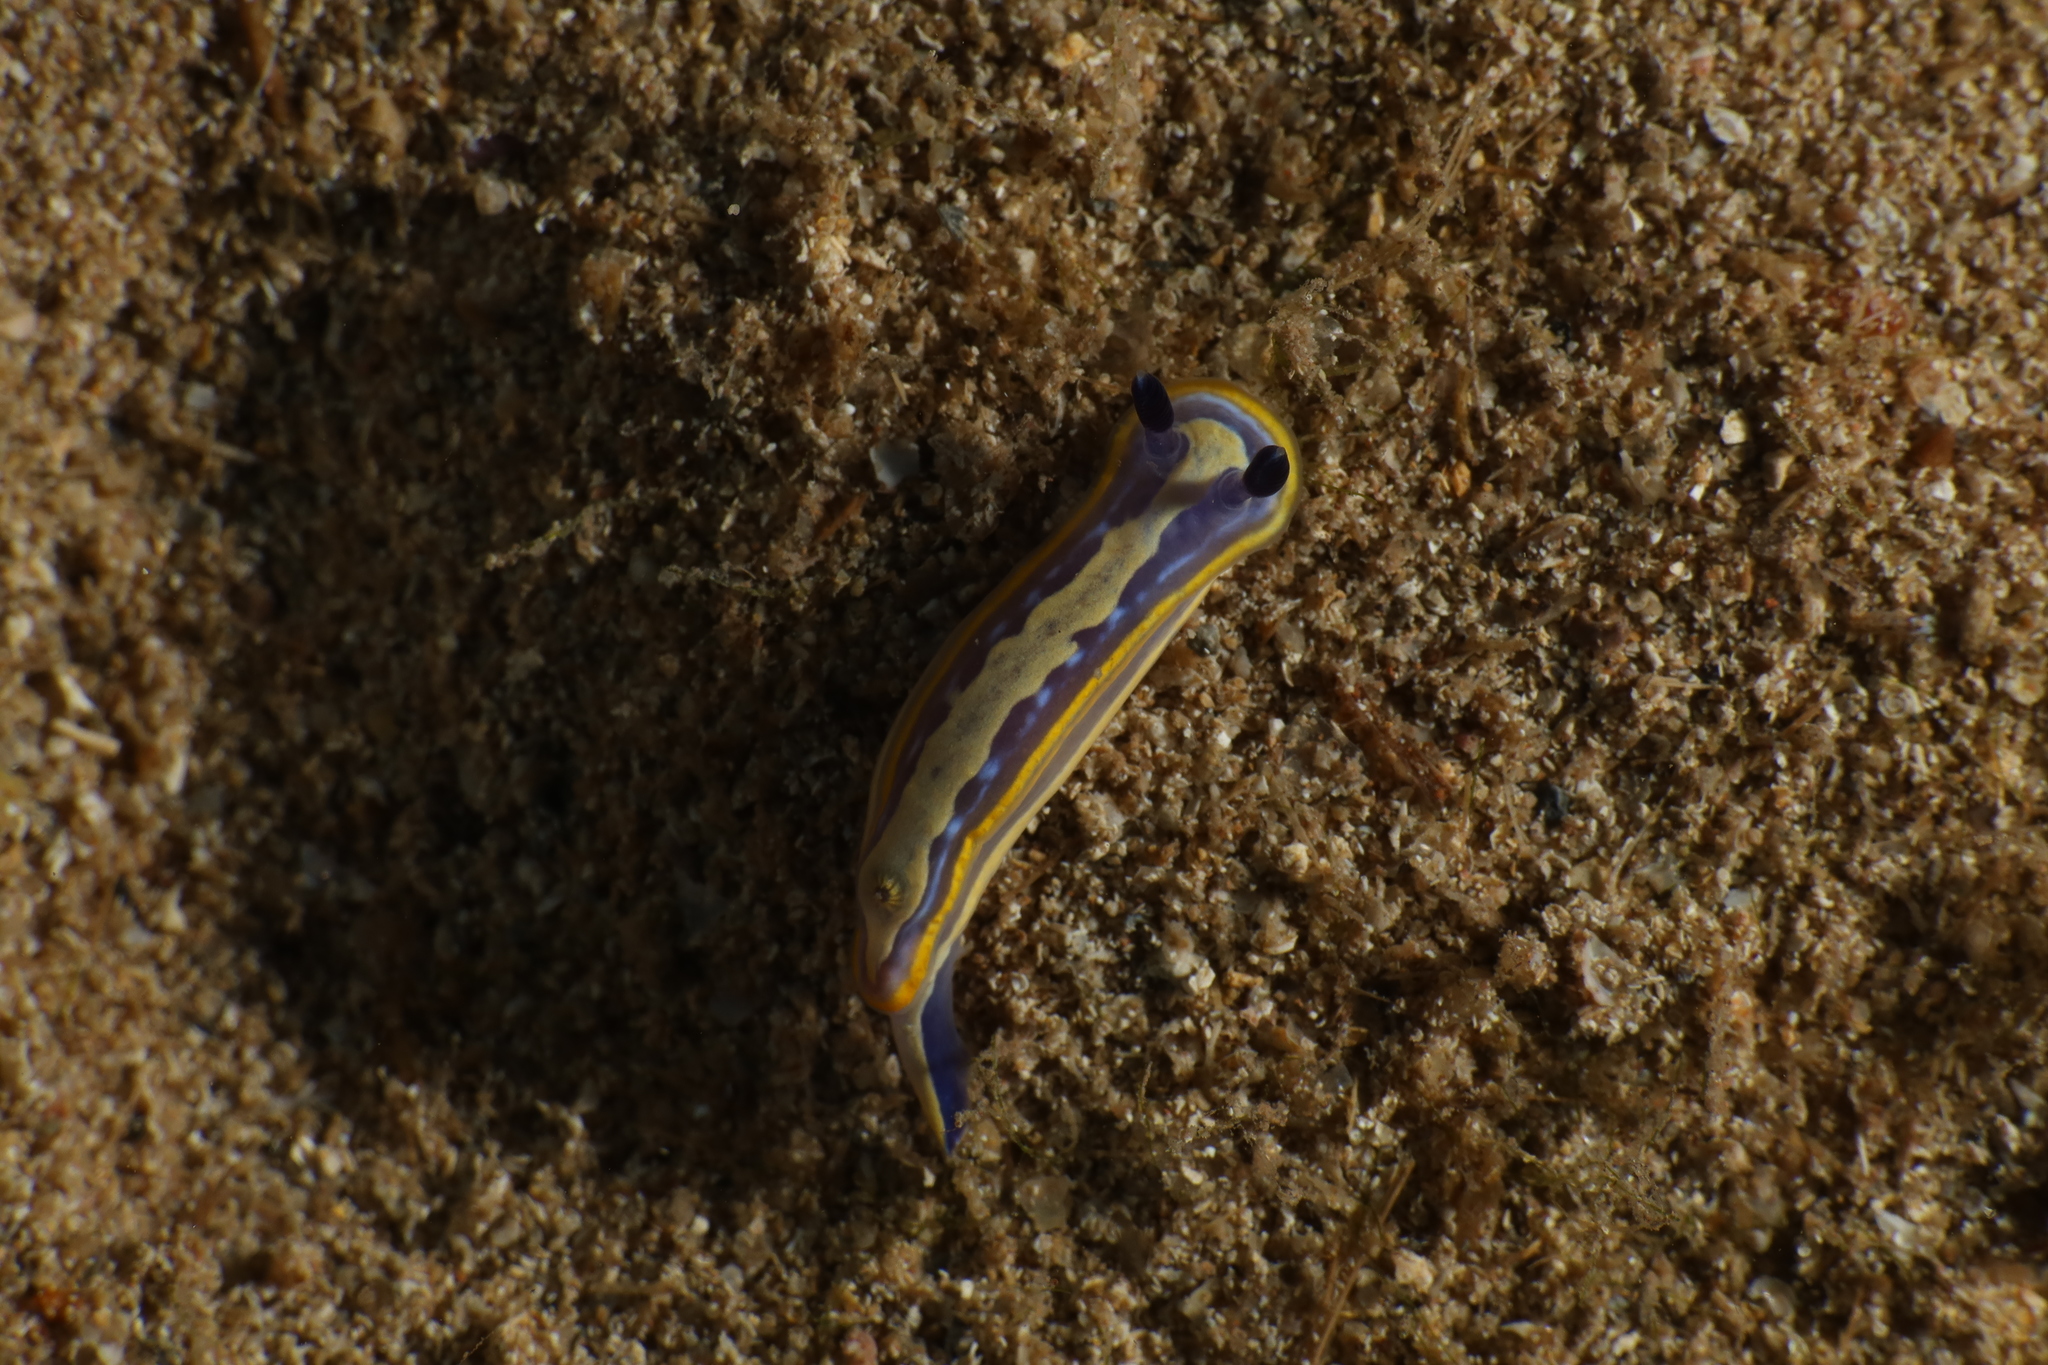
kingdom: Animalia
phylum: Mollusca
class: Gastropoda
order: Nudibranchia
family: Chromodorididae
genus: Felimare
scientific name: Felimare tricolor
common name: Tricolor doris
